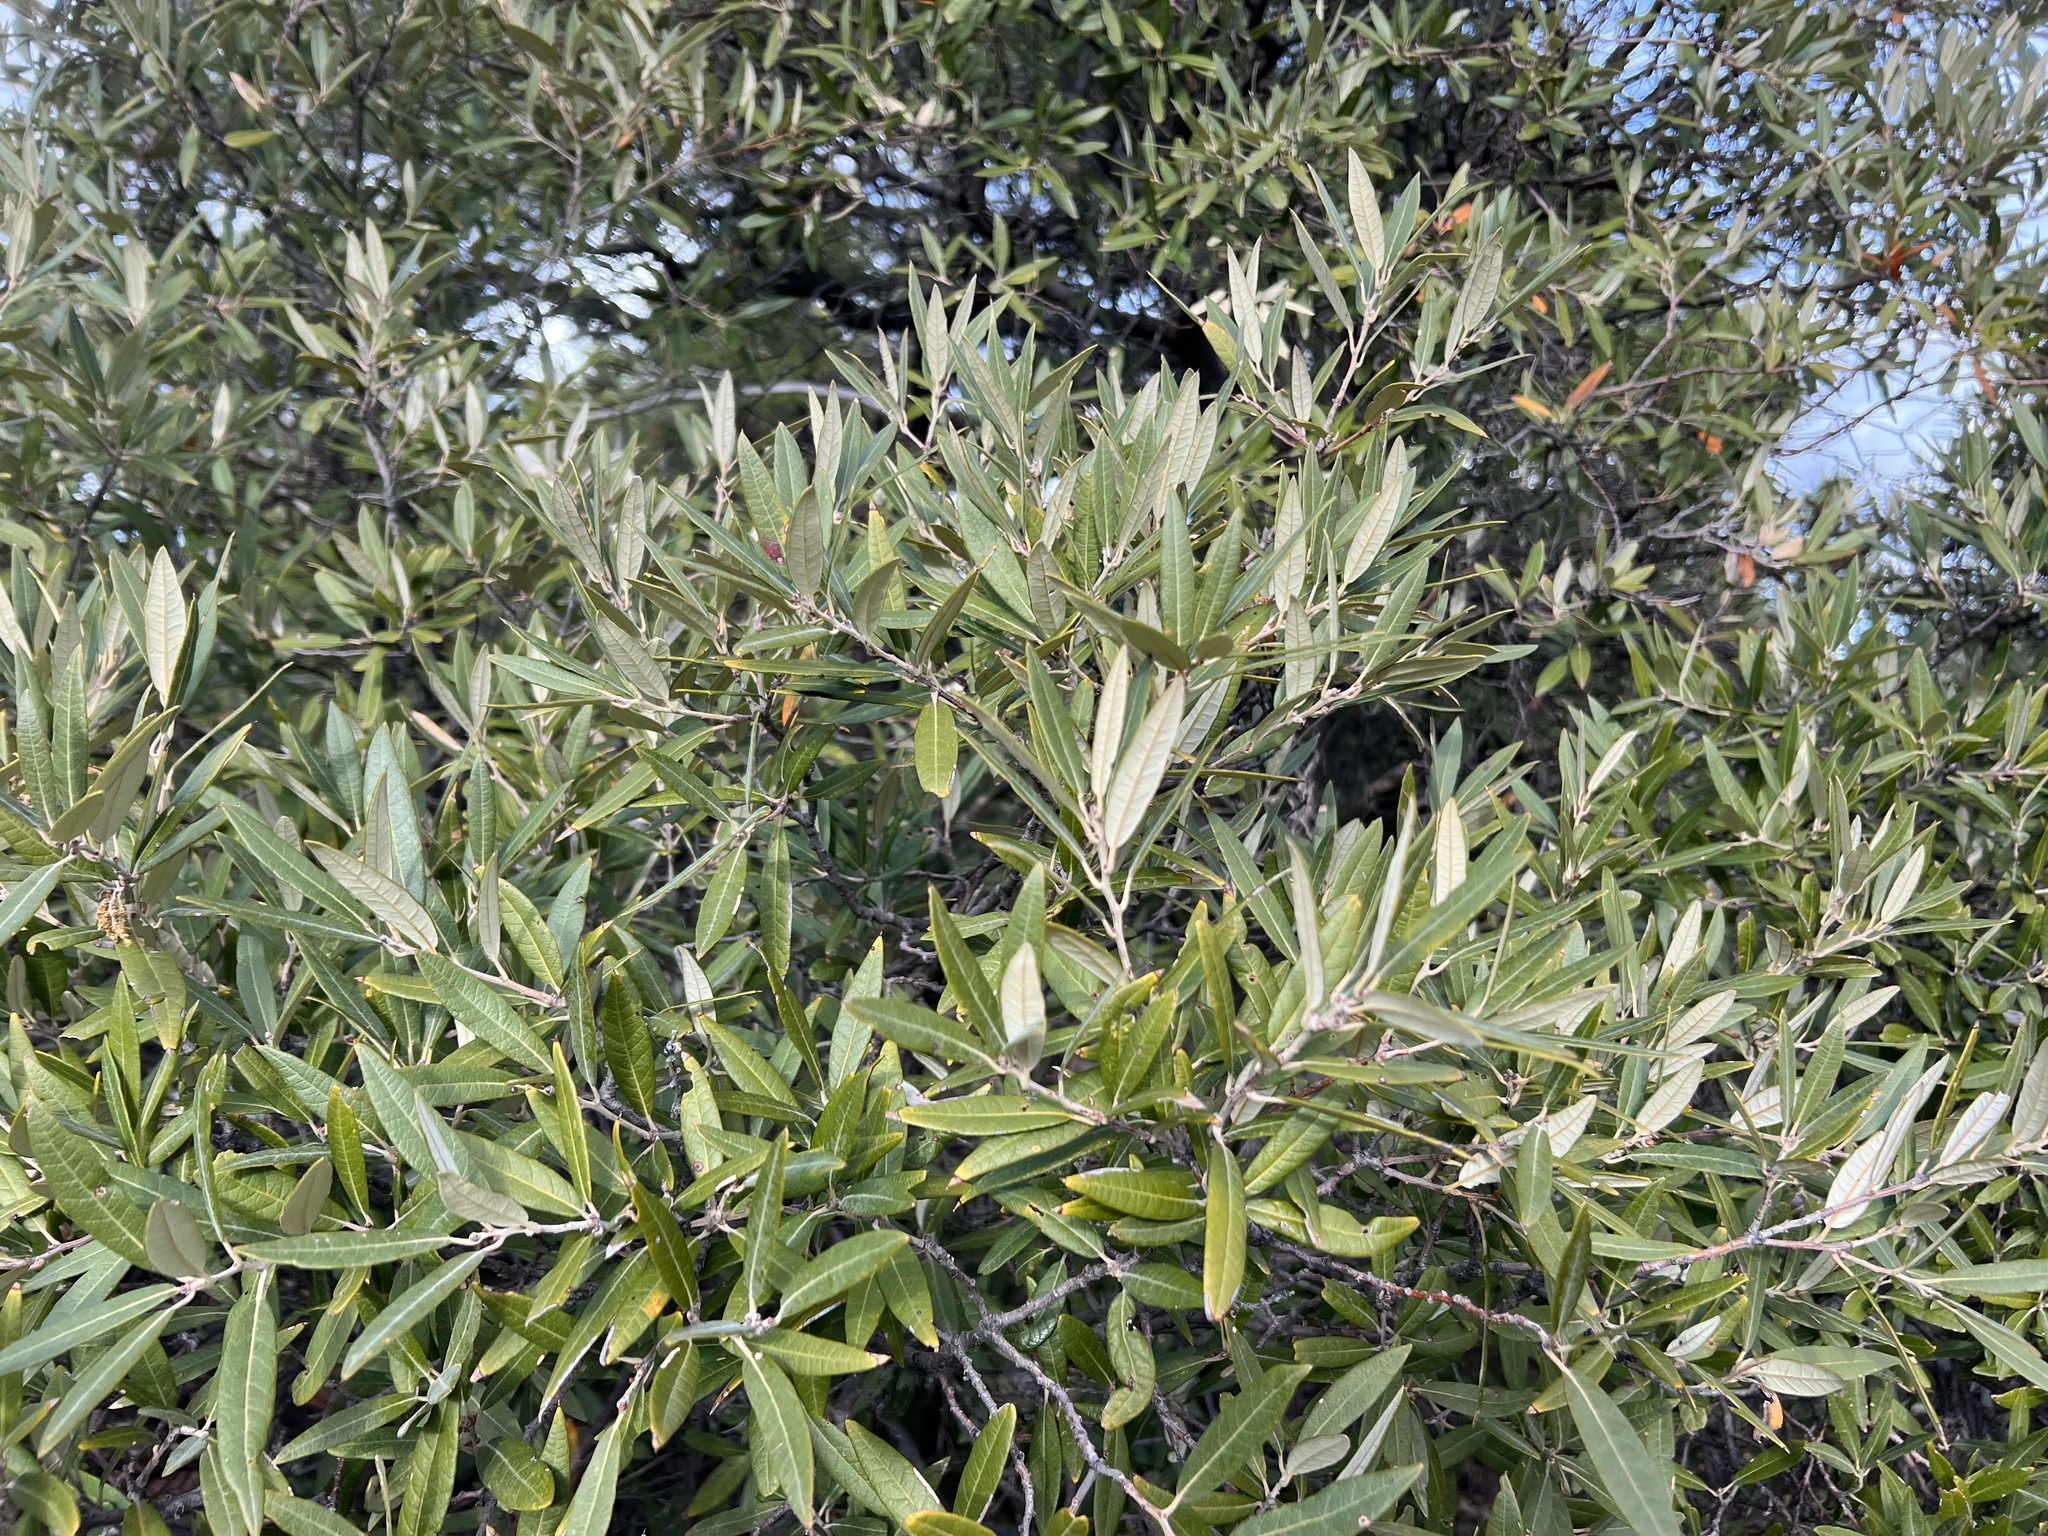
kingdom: Plantae
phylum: Tracheophyta
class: Magnoliopsida
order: Fagales
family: Fagaceae
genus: Quercus
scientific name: Quercus hypoleucoides
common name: Silverleaf oak
